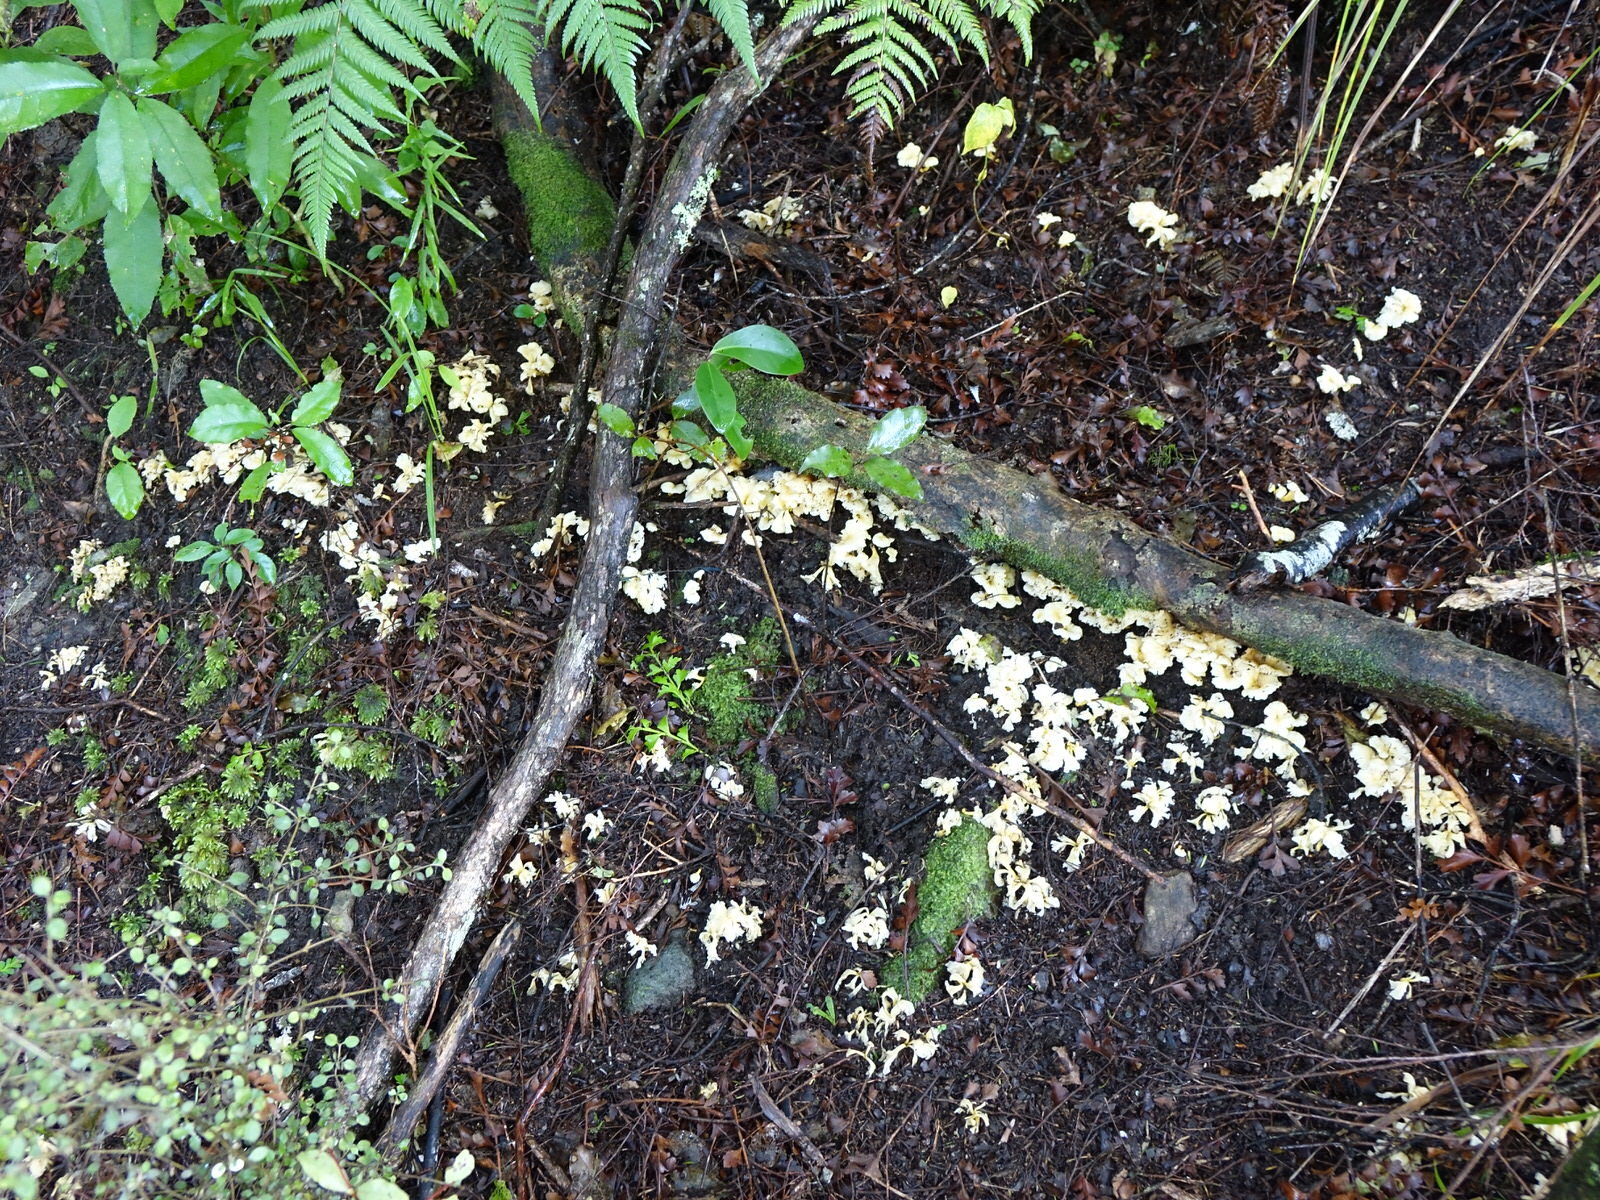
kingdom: Fungi
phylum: Basidiomycota
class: Agaricomycetes
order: Cantharellales
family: Hydnaceae
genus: Cantharellus
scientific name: Cantharellus wellingtonensis
